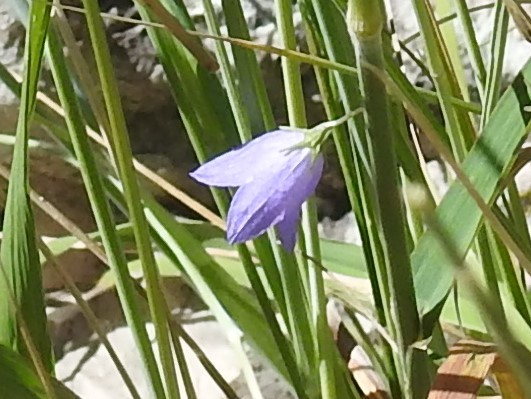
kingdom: Plantae
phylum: Tracheophyta
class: Magnoliopsida
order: Asterales
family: Campanulaceae
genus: Campanula
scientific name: Campanula petiolata
